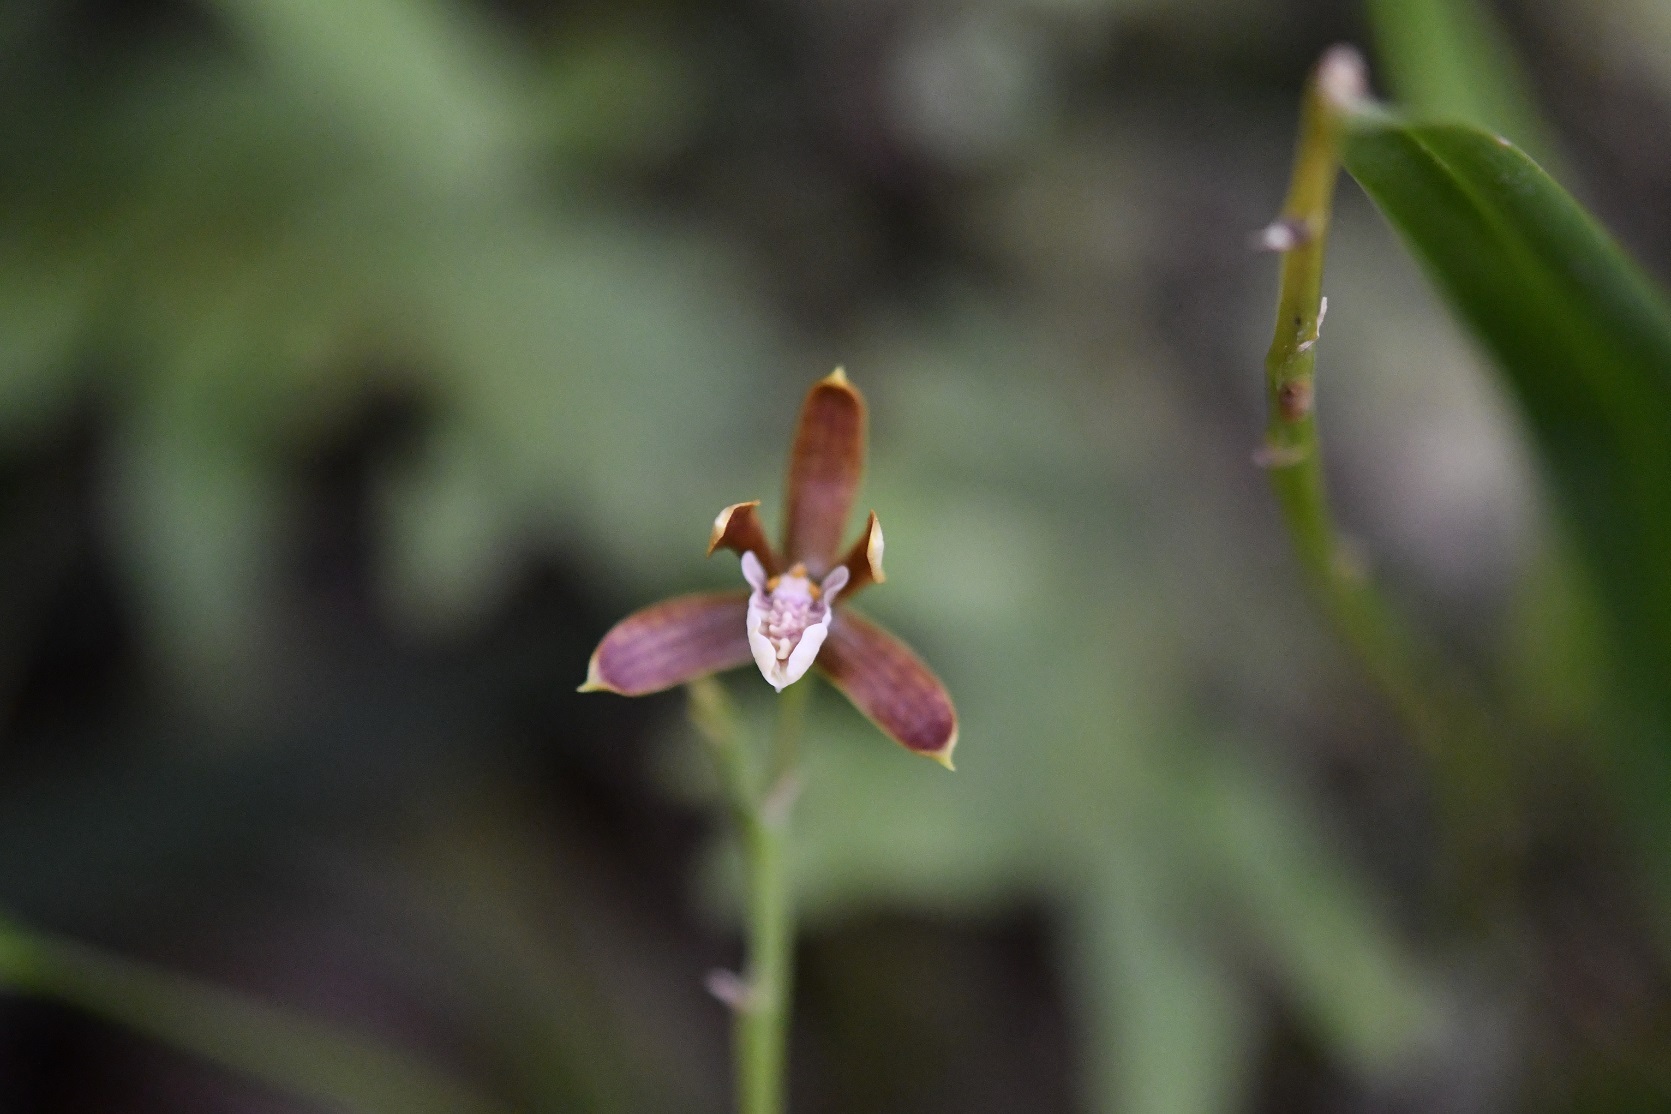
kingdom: Plantae
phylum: Tracheophyta
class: Liliopsida
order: Asparagales
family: Orchidaceae
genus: Prosthechea
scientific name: Prosthechea livida
